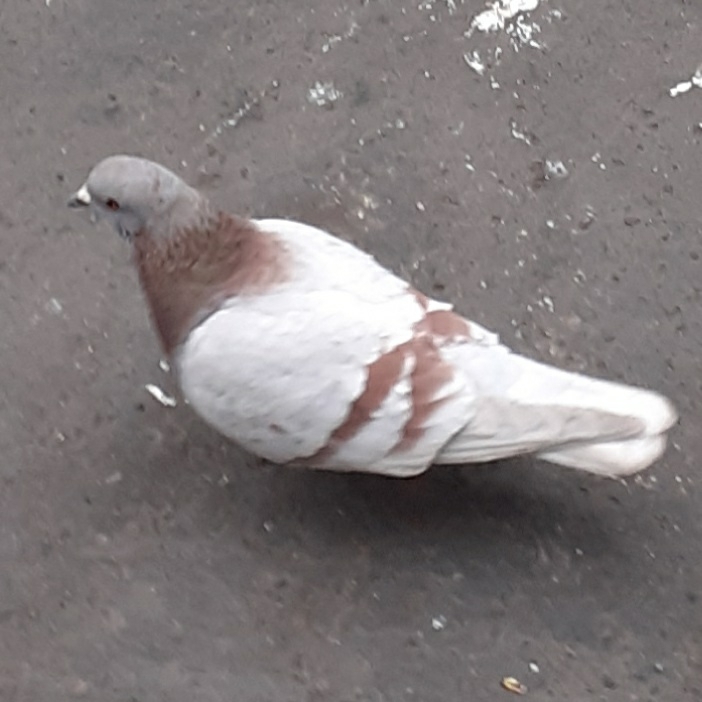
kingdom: Animalia
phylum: Chordata
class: Aves
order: Columbiformes
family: Columbidae
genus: Columba
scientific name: Columba livia
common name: Rock pigeon
